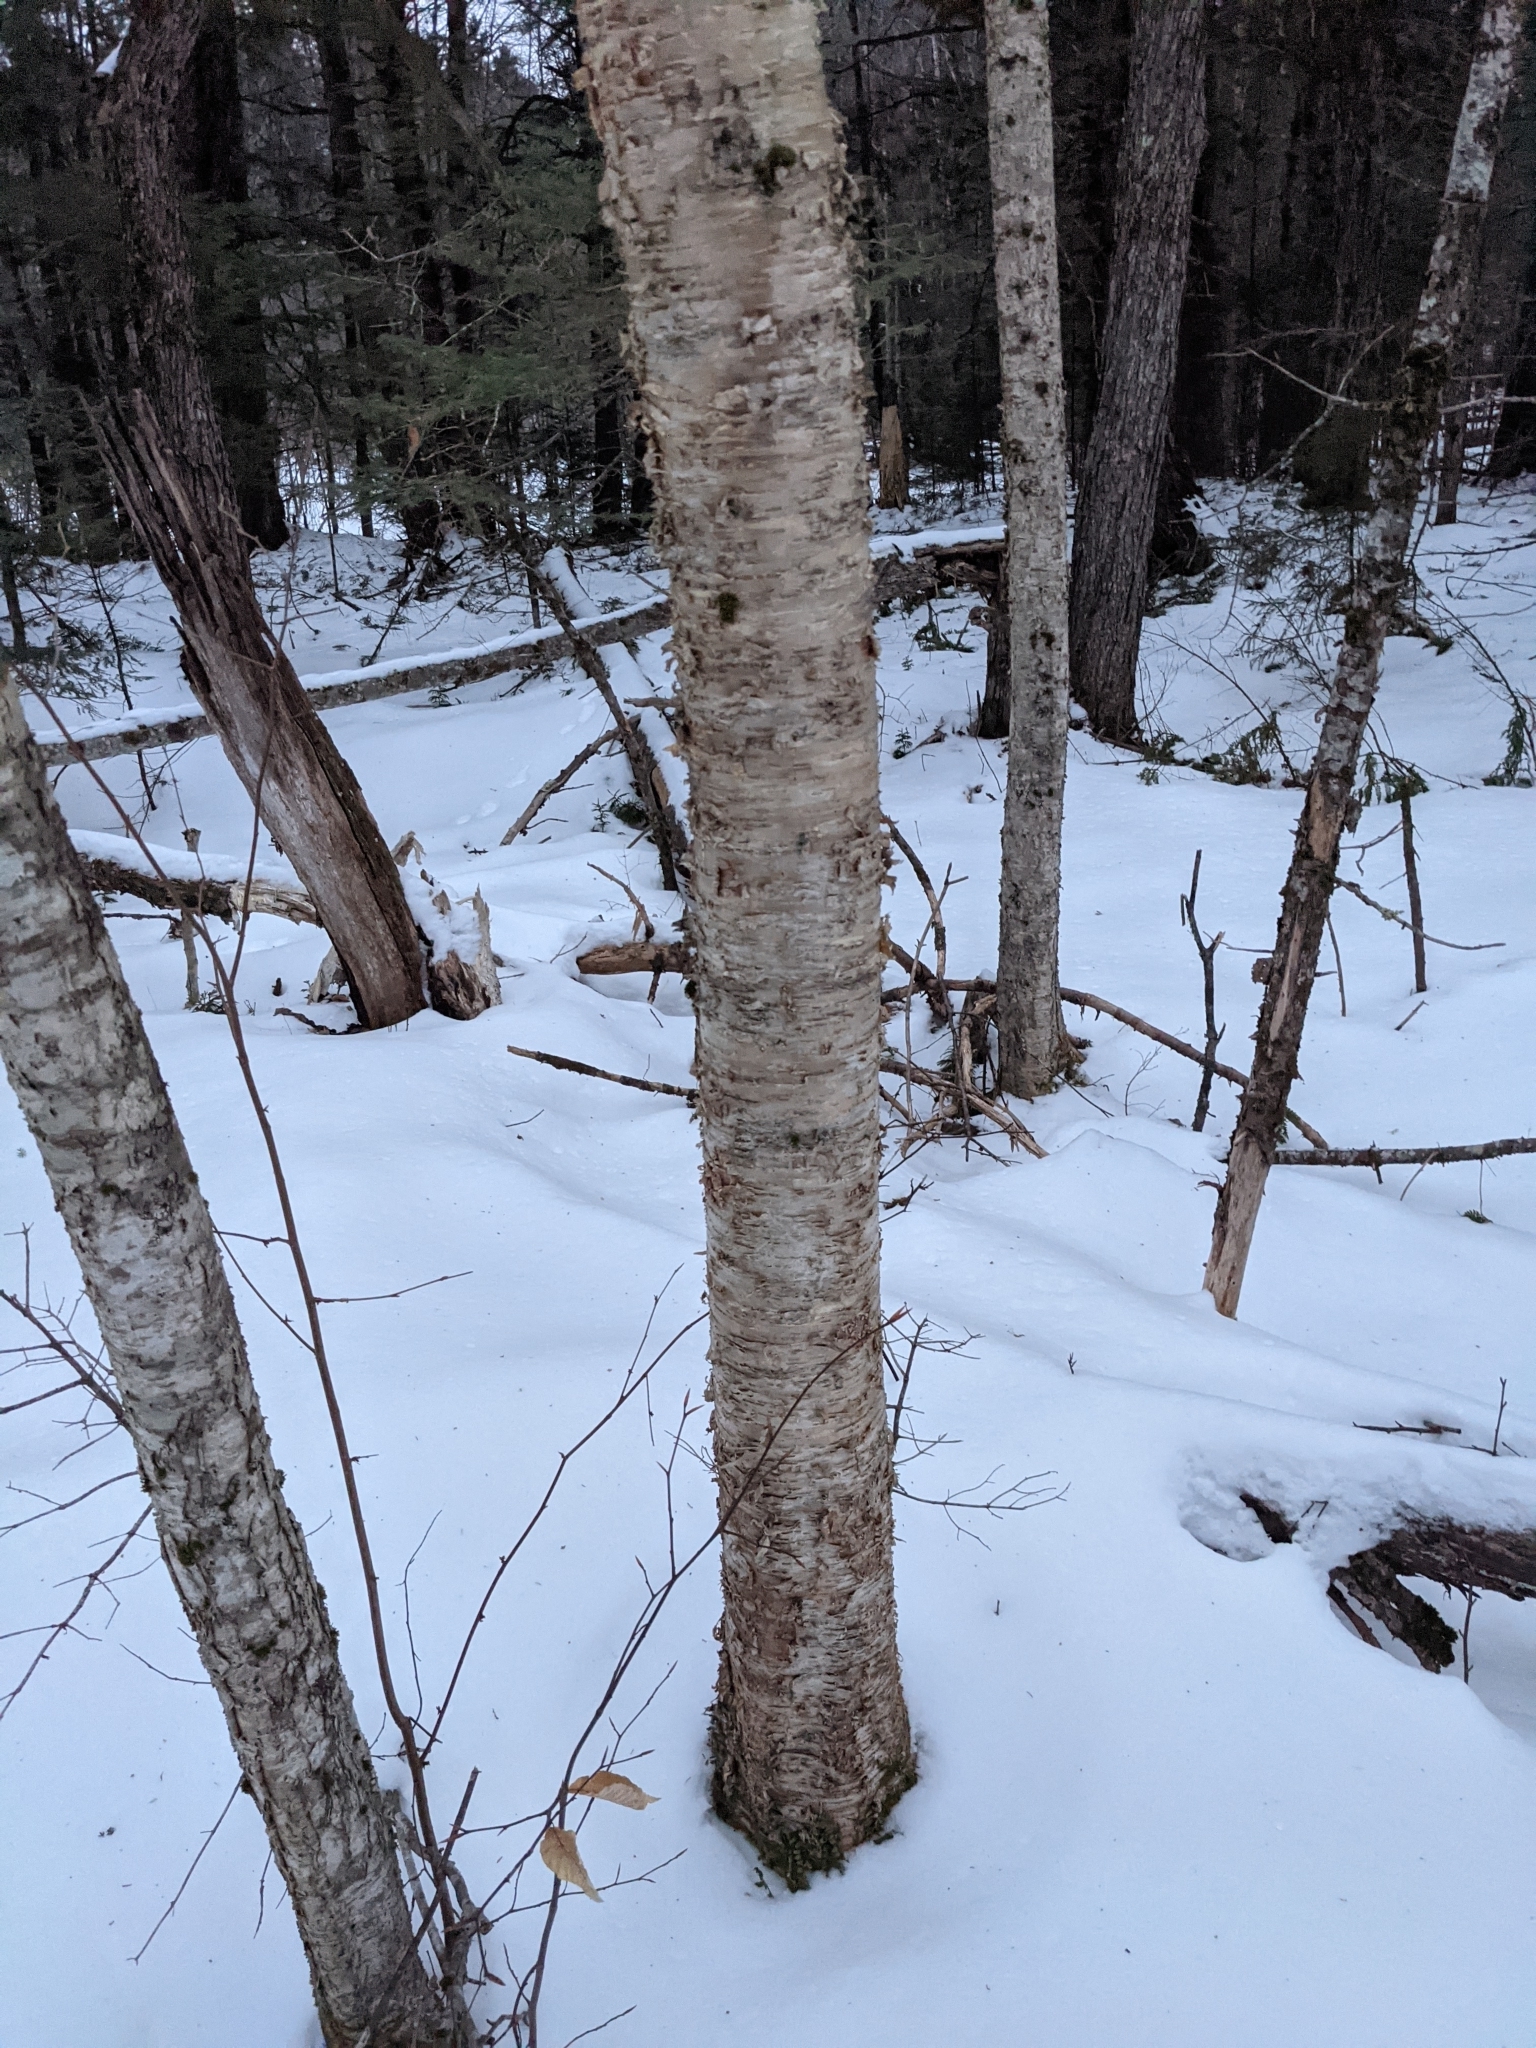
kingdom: Plantae
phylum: Tracheophyta
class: Magnoliopsida
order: Fagales
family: Betulaceae
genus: Betula
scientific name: Betula alleghaniensis
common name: Yellow birch
